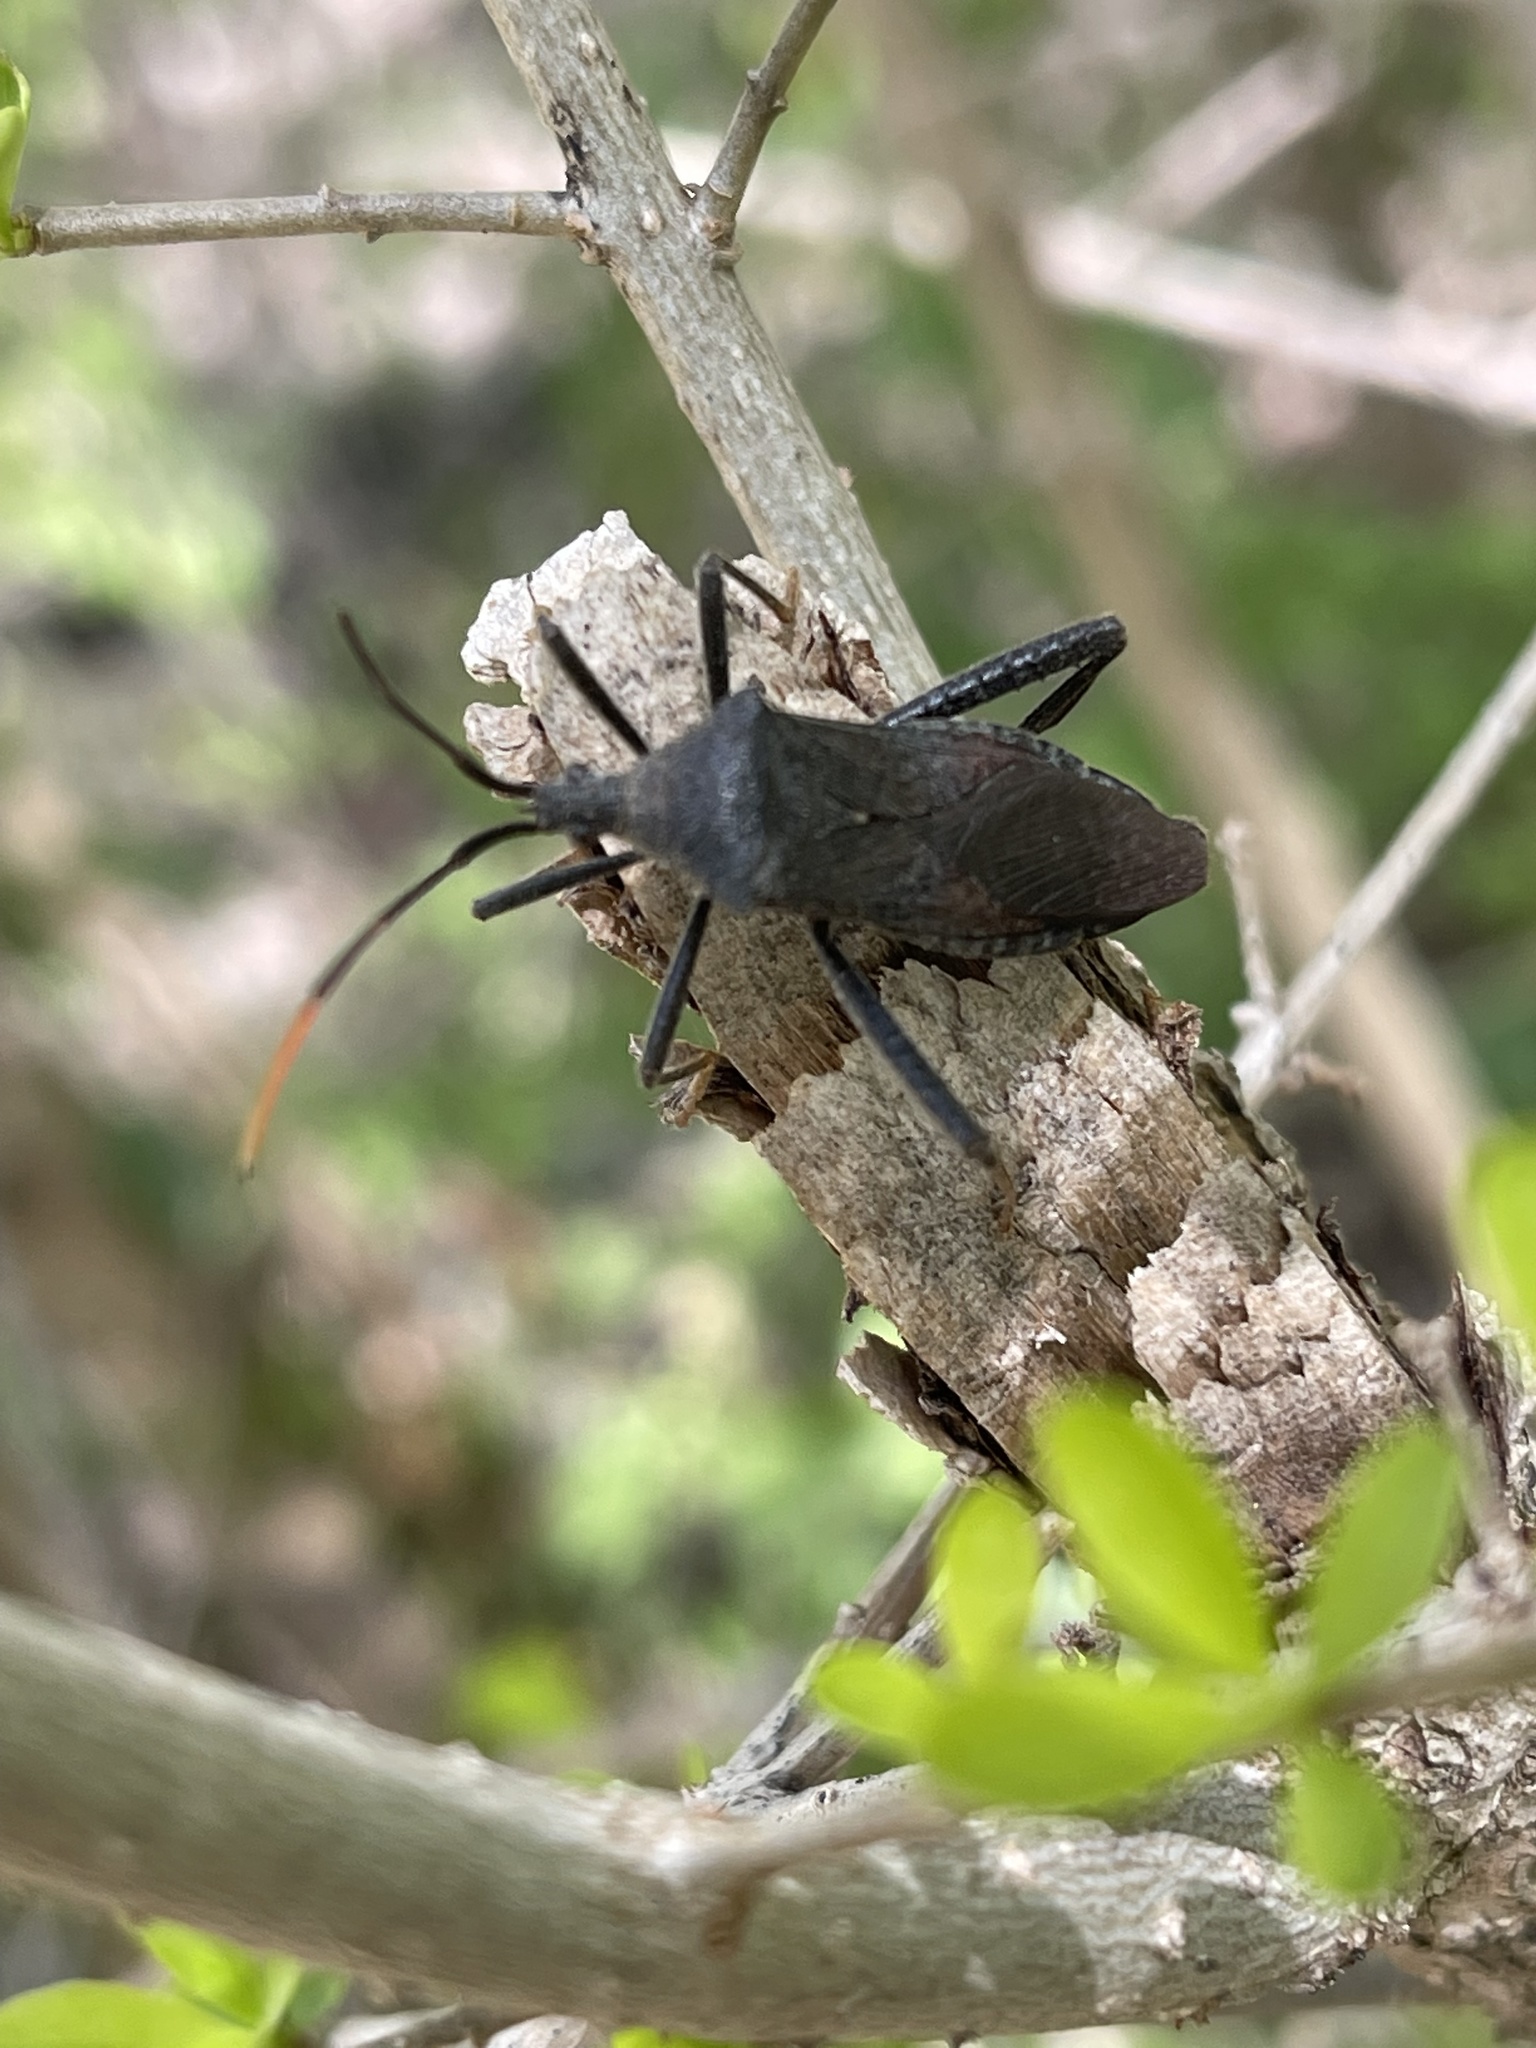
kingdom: Animalia
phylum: Arthropoda
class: Insecta
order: Hemiptera
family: Coreidae
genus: Acanthocephala
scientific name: Acanthocephala terminalis
